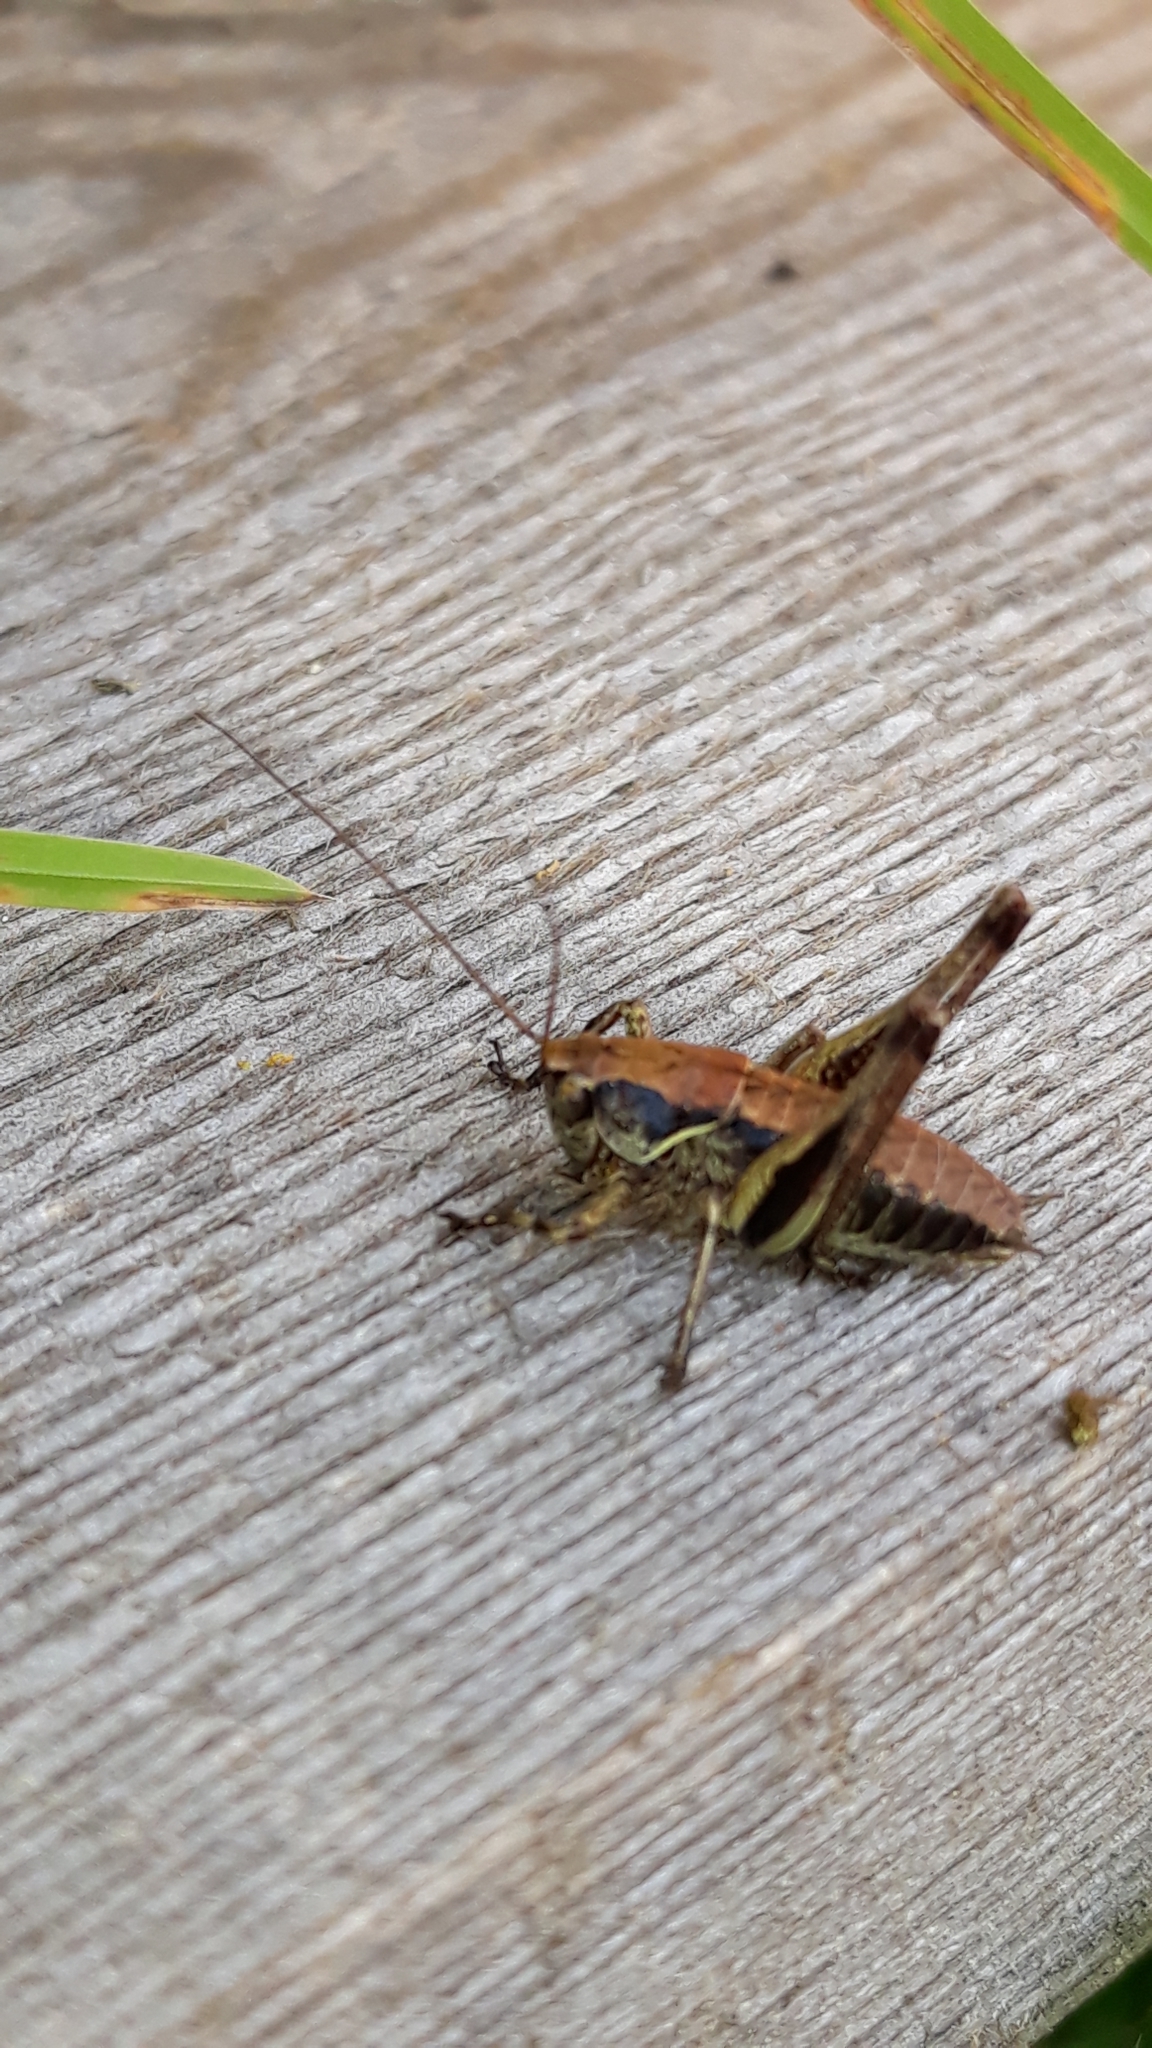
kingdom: Animalia
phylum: Arthropoda
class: Insecta
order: Orthoptera
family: Tettigoniidae
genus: Pholidoptera
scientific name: Pholidoptera aptera
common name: Alpine dark bush-cricket
